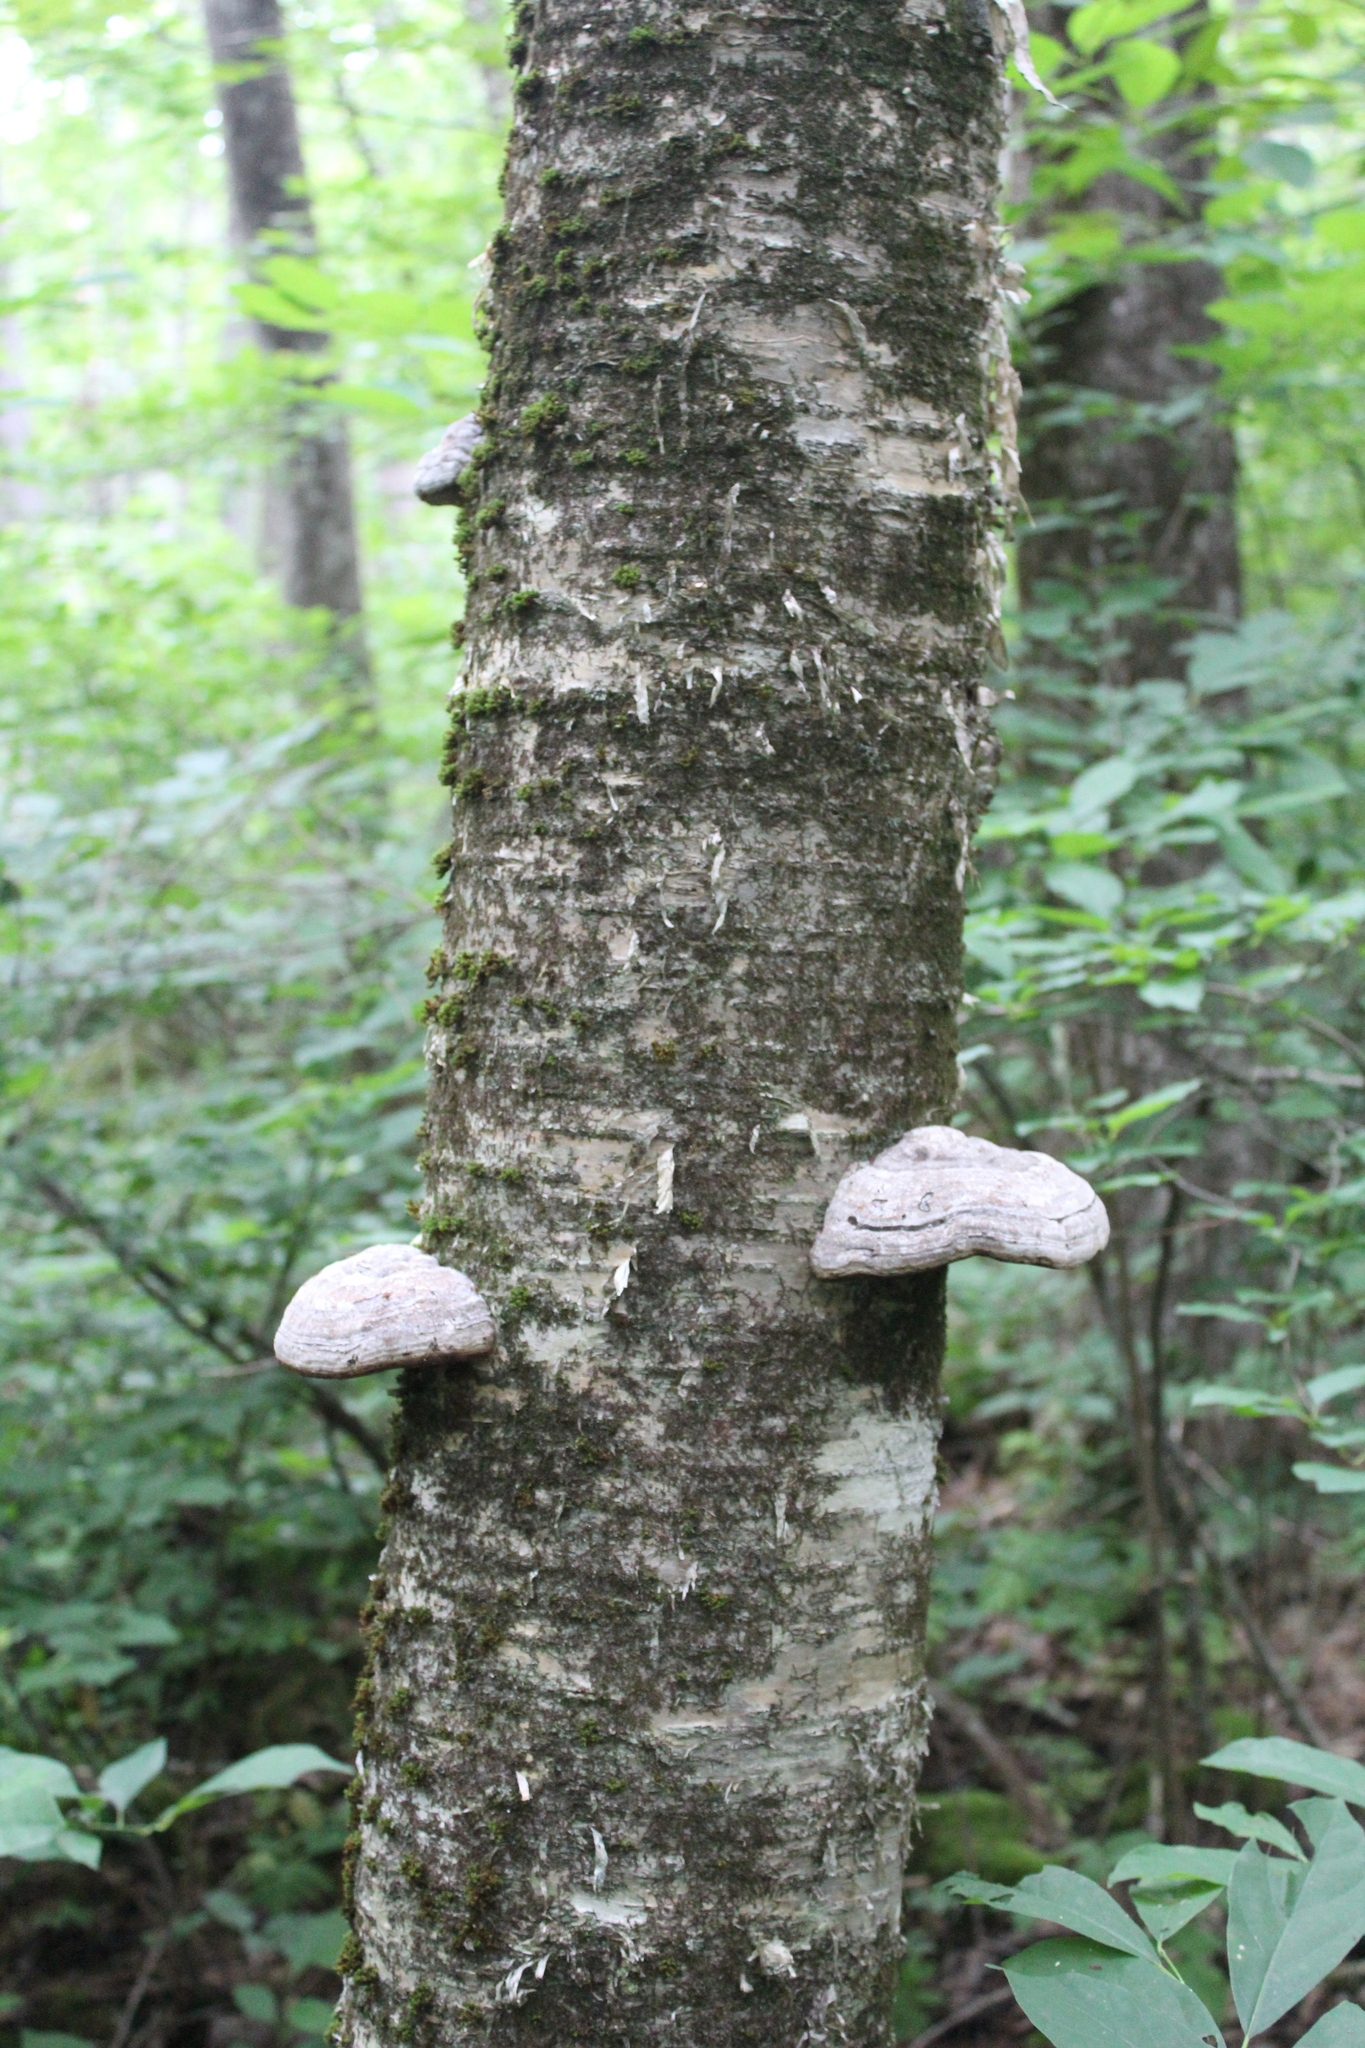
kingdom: Plantae
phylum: Tracheophyta
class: Magnoliopsida
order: Fagales
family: Betulaceae
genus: Betula
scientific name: Betula alleghaniensis
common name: Yellow birch
